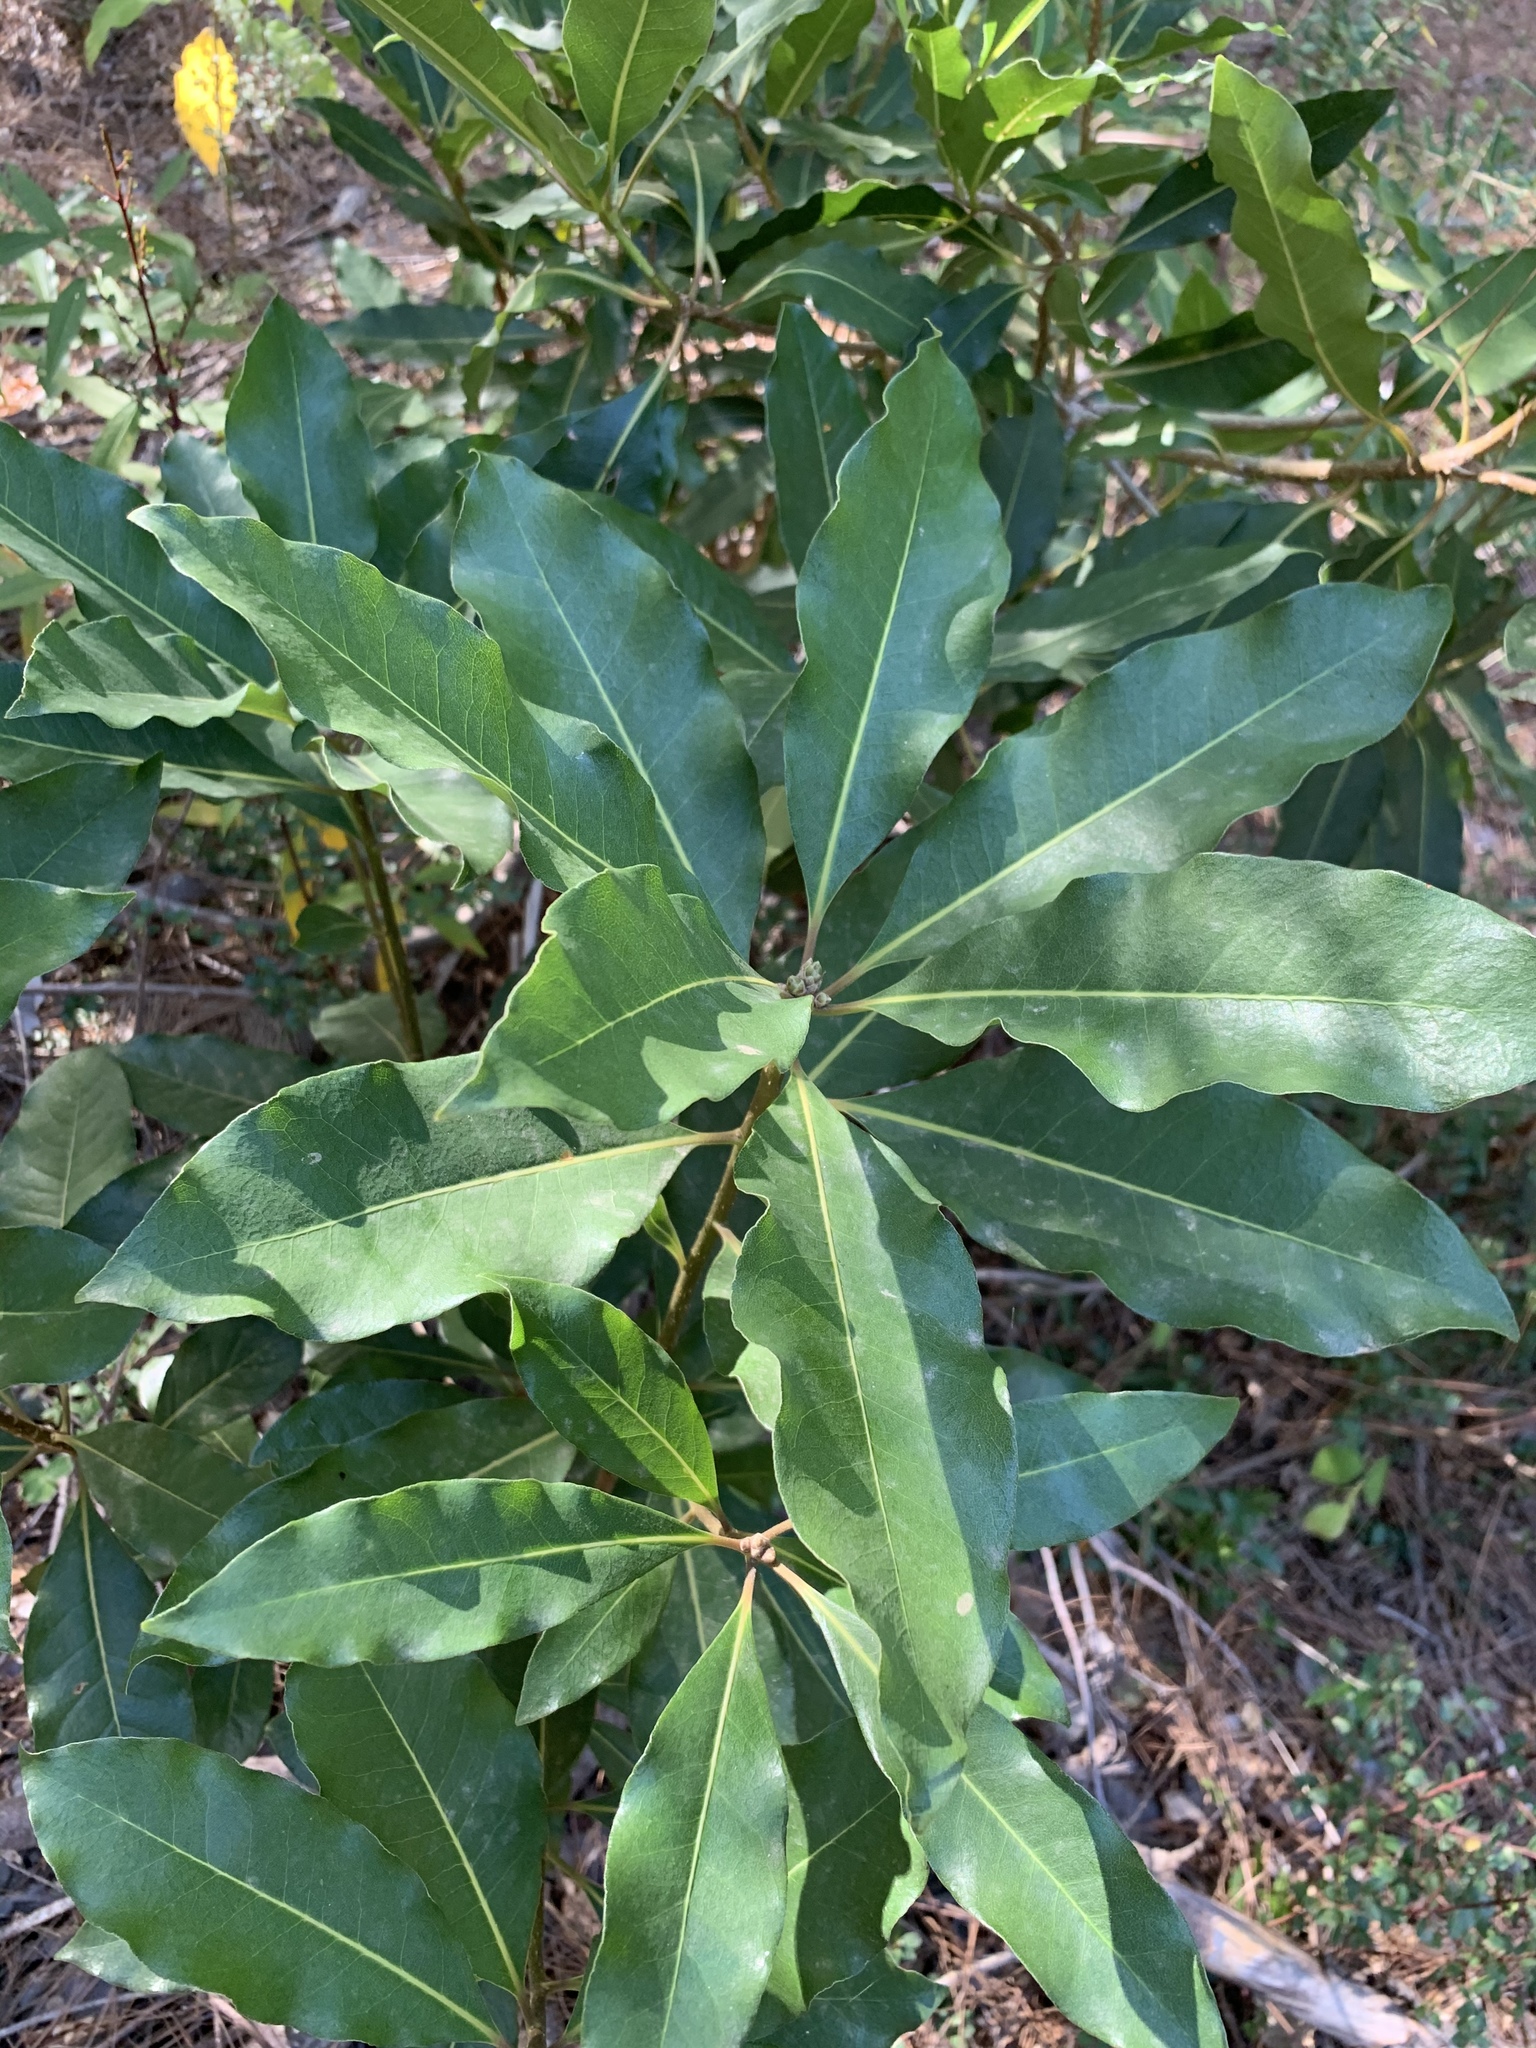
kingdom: Plantae
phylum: Tracheophyta
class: Magnoliopsida
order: Apiales
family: Pittosporaceae
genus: Pittosporum
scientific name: Pittosporum undulatum
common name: Australian cheesewood
